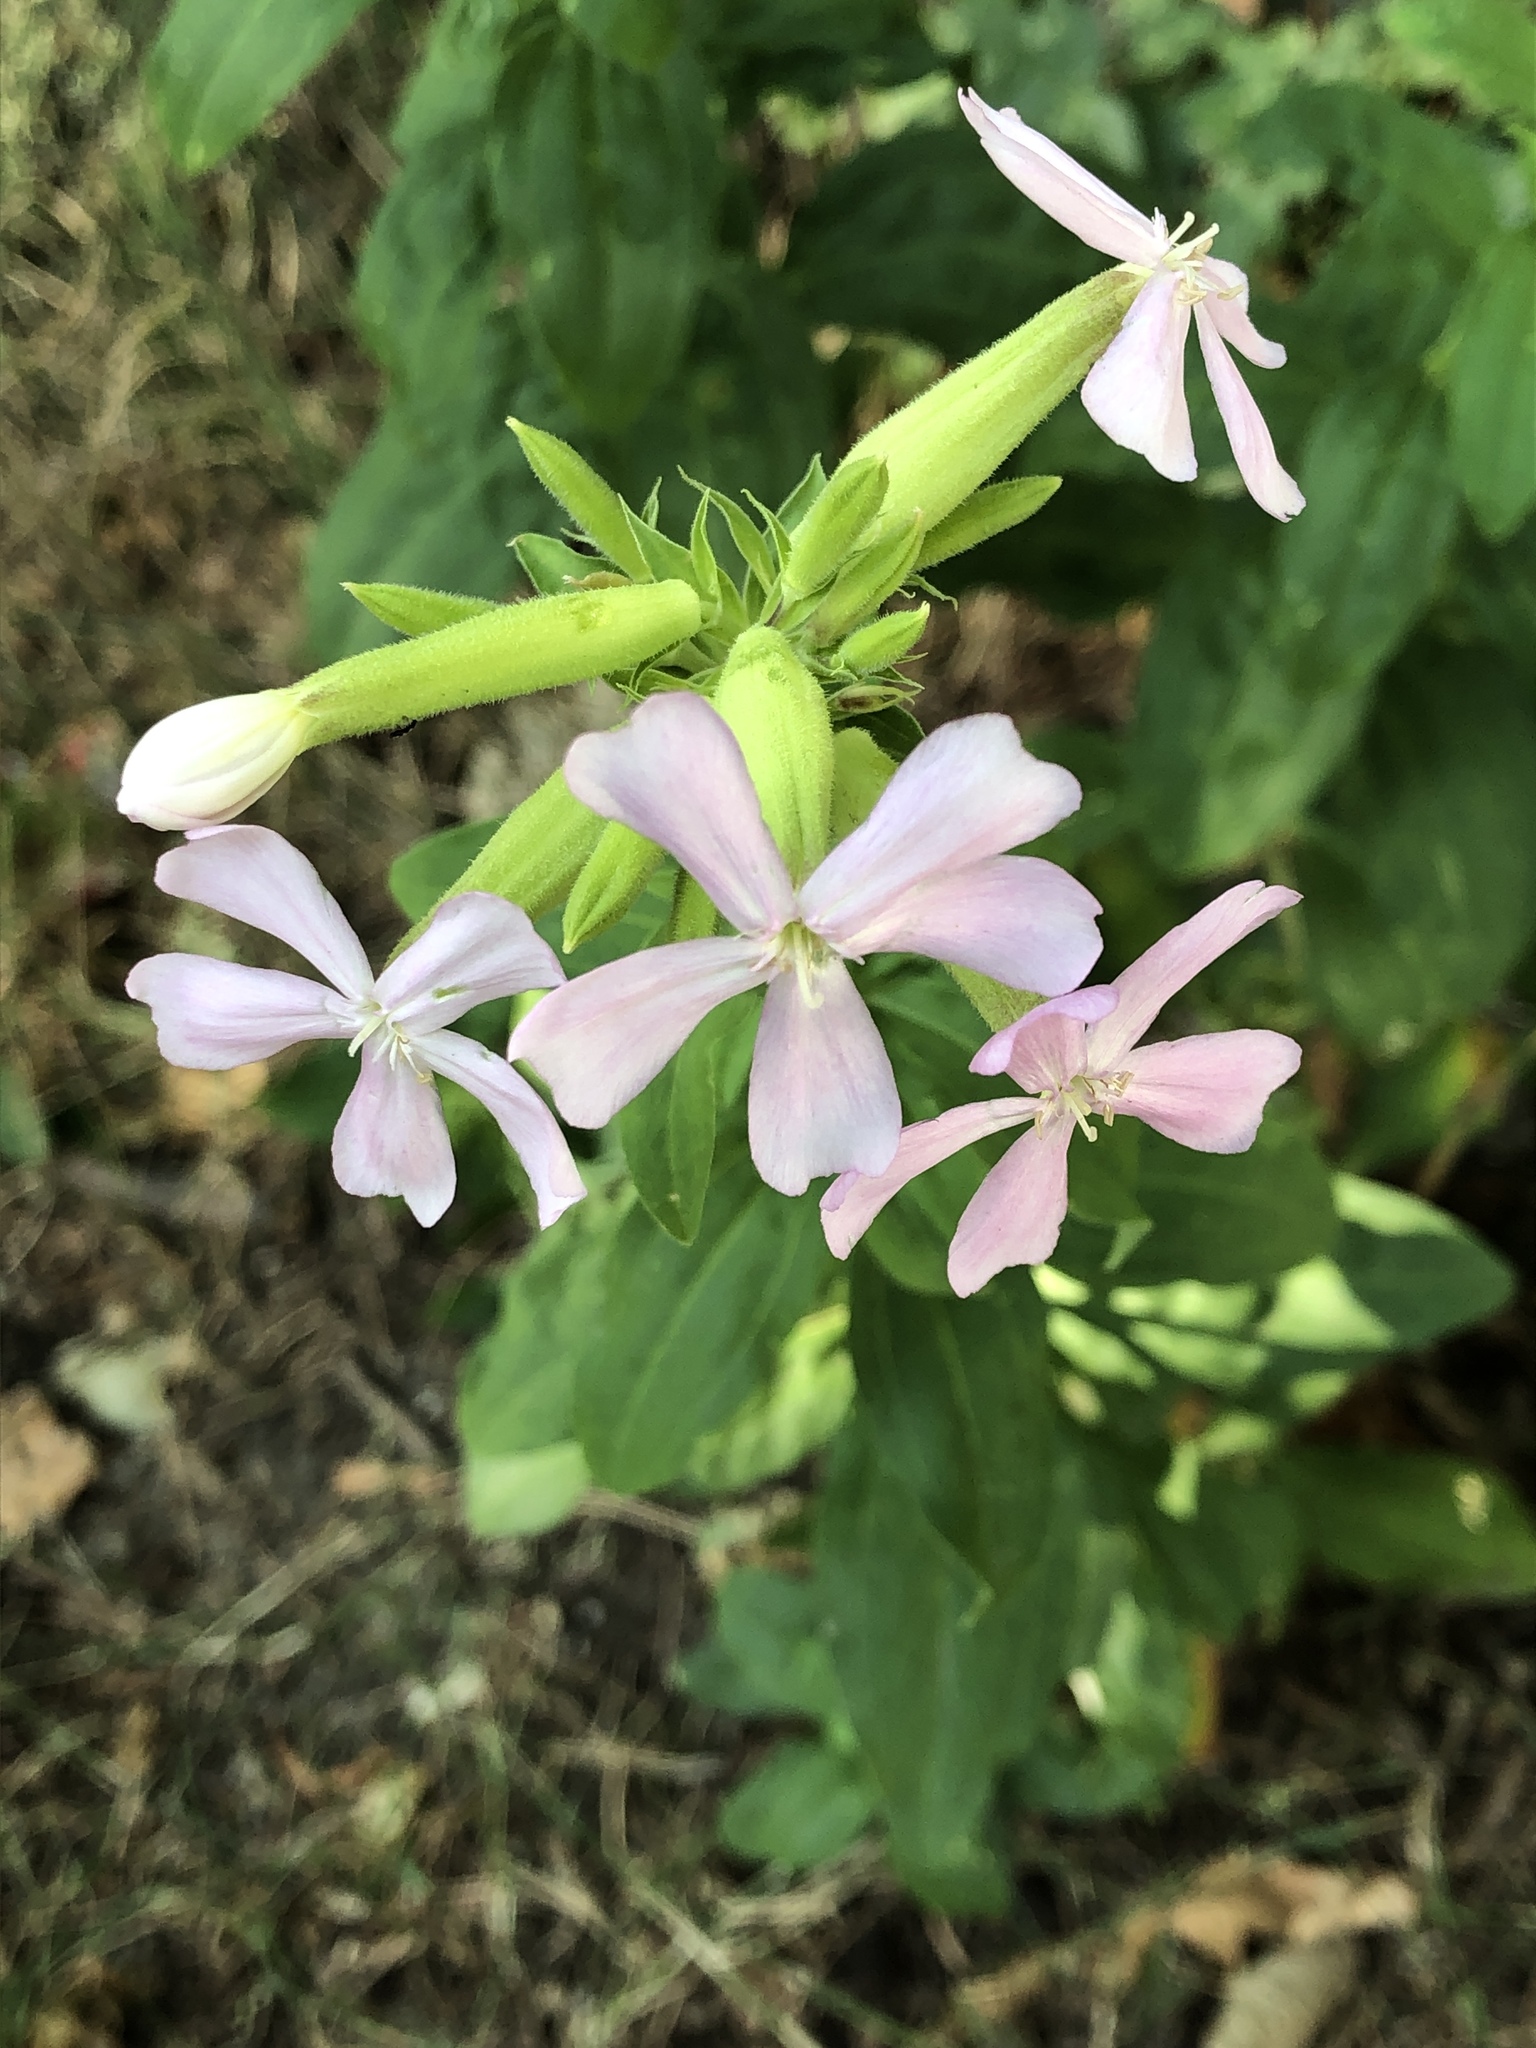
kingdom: Plantae
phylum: Tracheophyta
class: Magnoliopsida
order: Caryophyllales
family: Caryophyllaceae
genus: Saponaria
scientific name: Saponaria officinalis
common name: Soapwort
